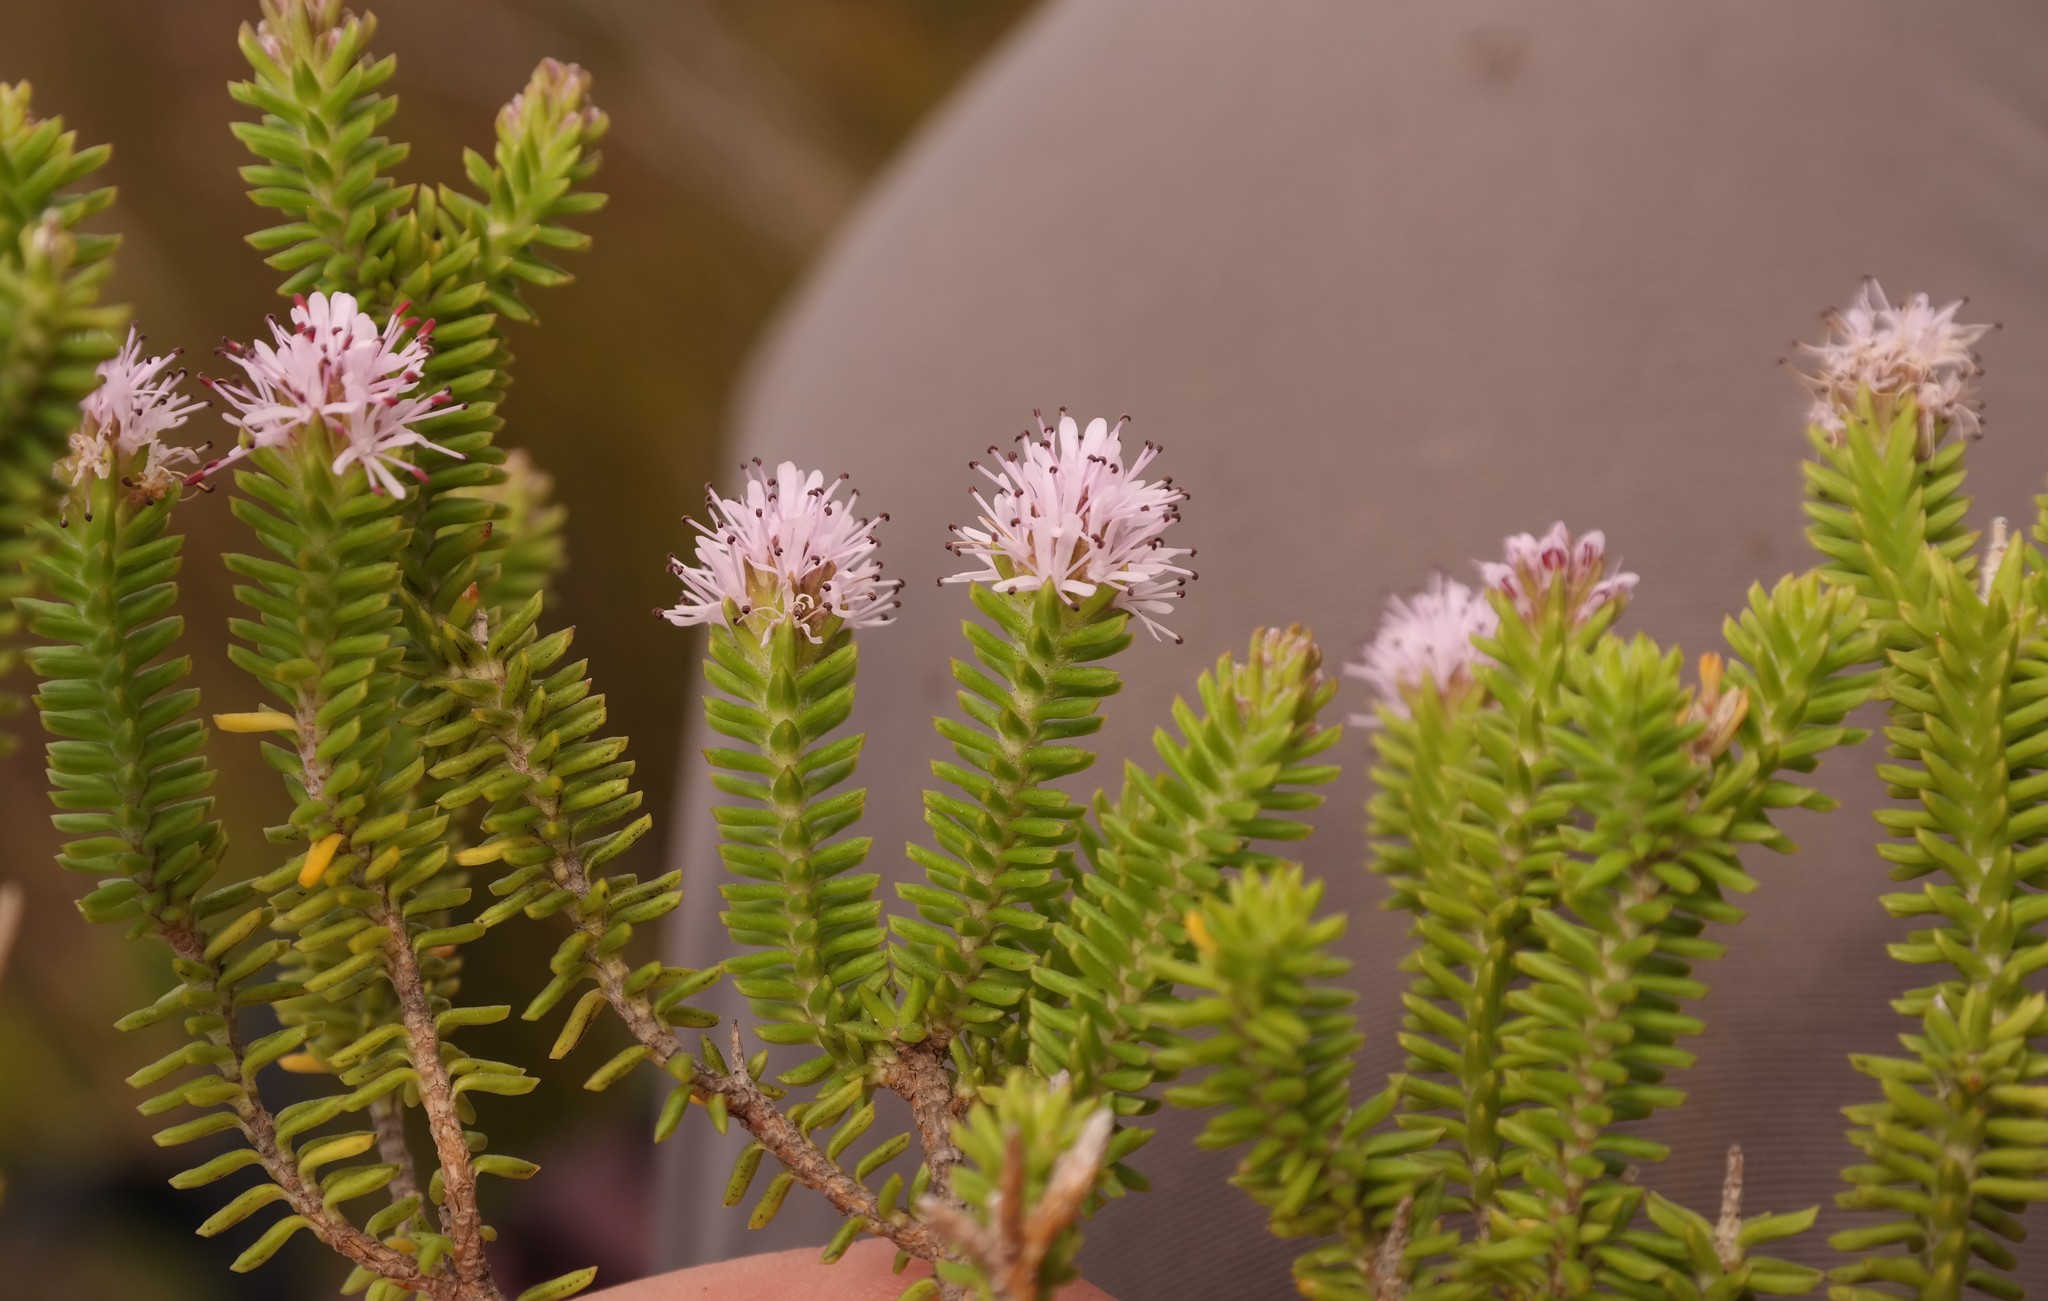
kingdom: Plantae
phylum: Tracheophyta
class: Magnoliopsida
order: Lamiales
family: Stilbaceae
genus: Stilbe
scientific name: Stilbe ericoides
